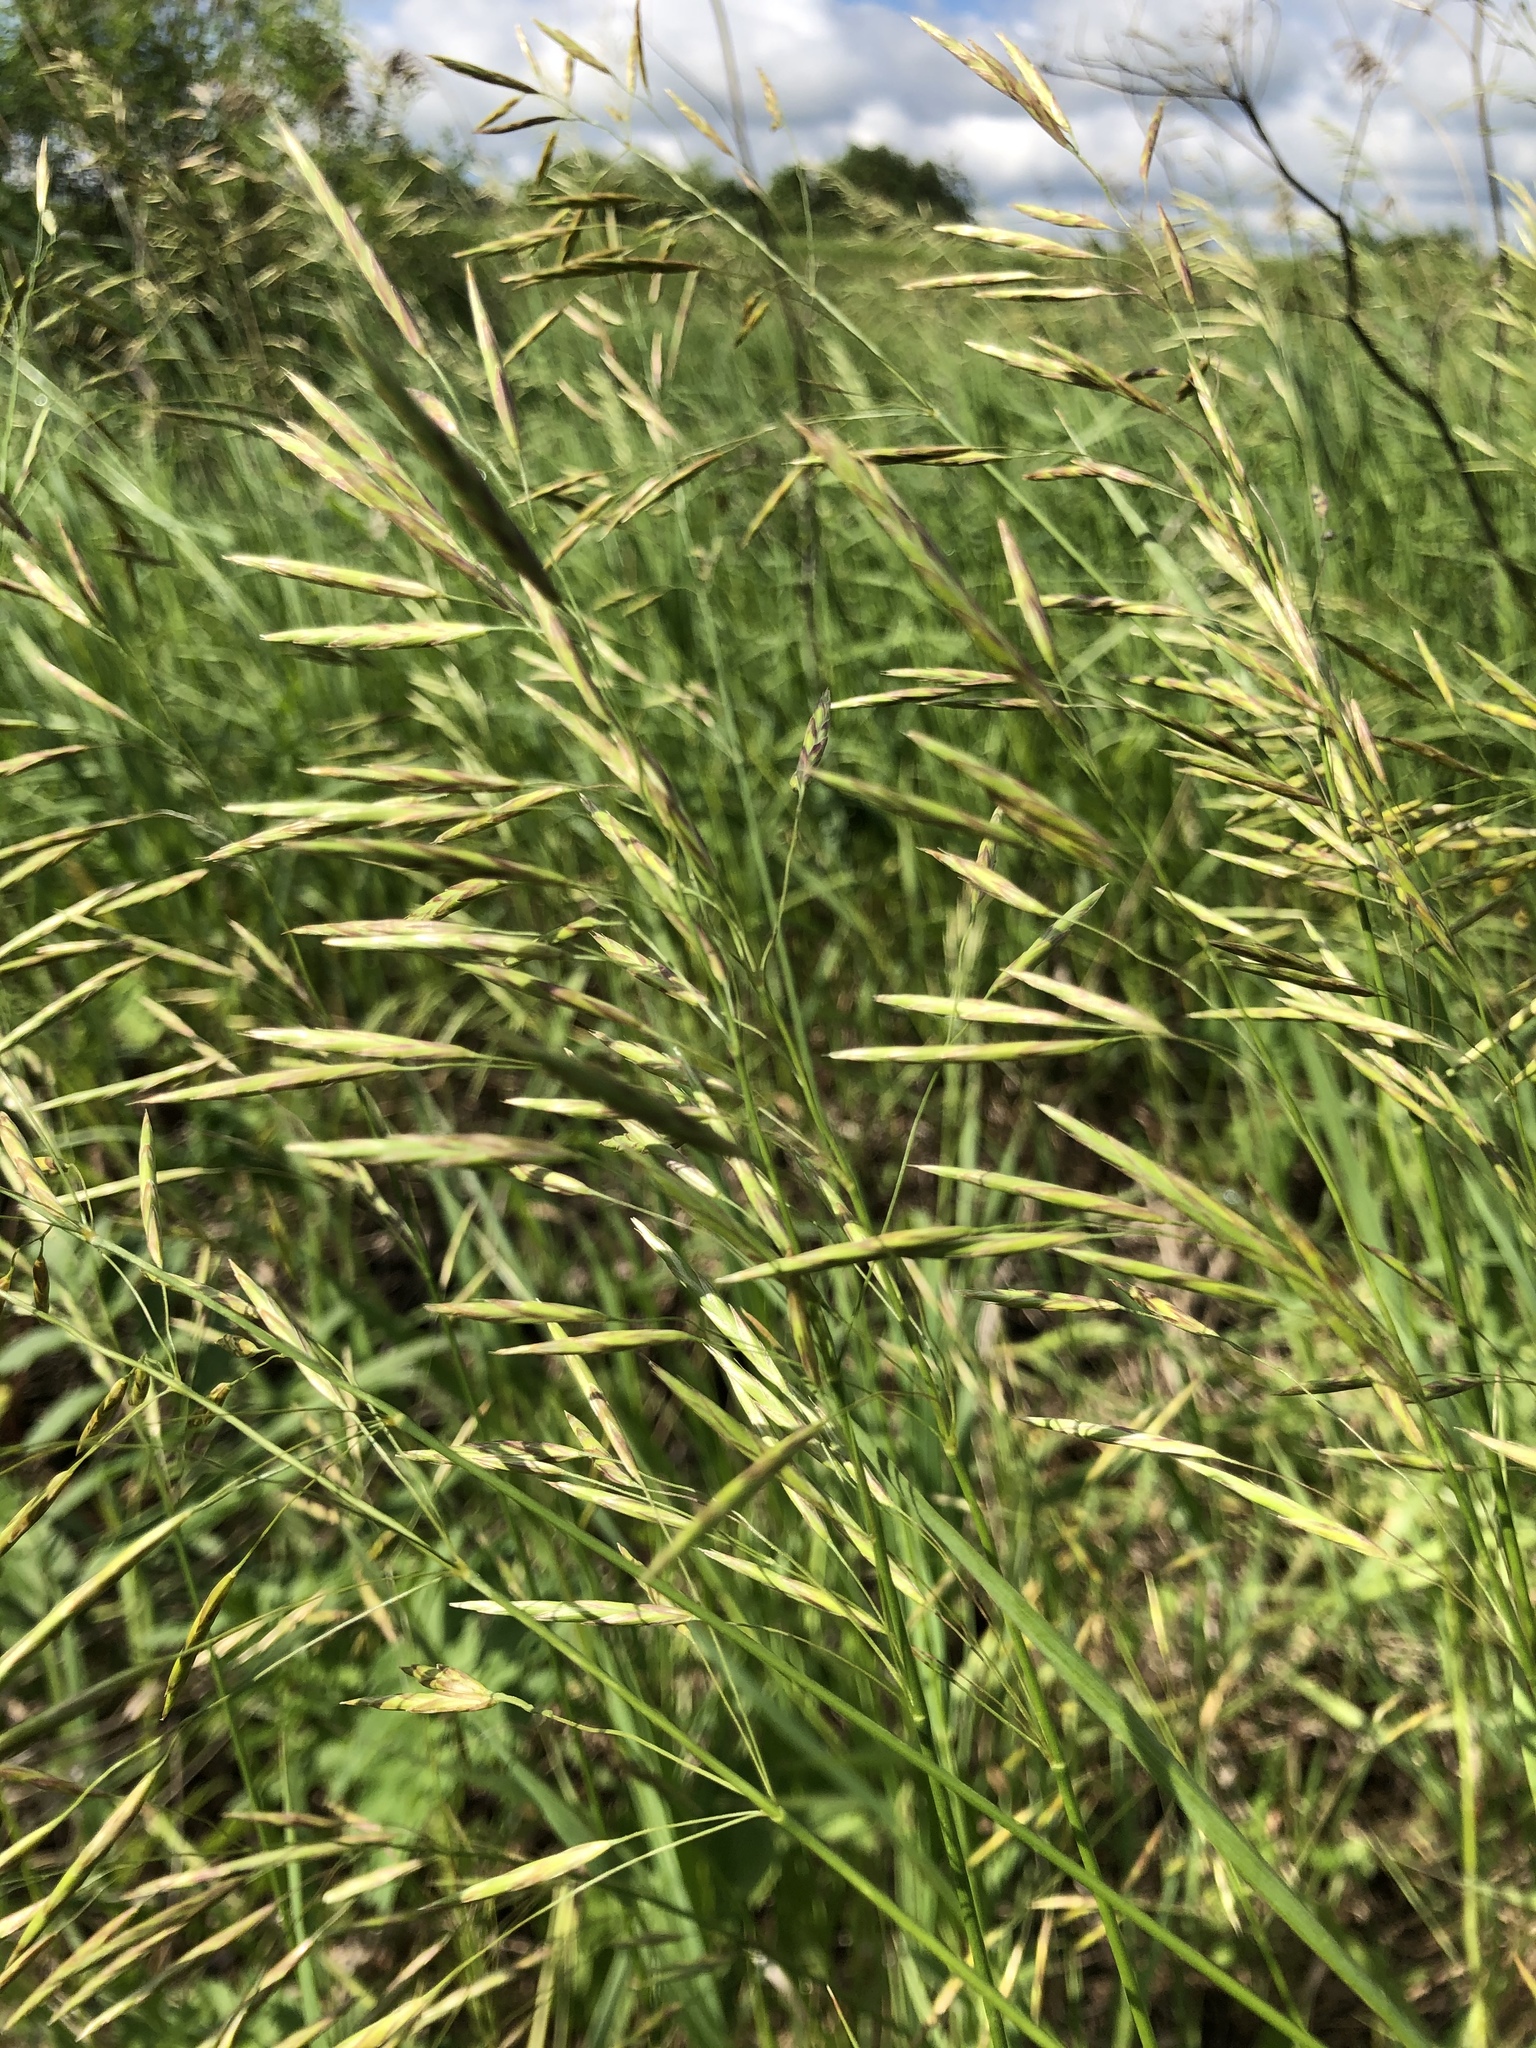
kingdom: Plantae
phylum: Tracheophyta
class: Liliopsida
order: Poales
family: Poaceae
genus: Bromus
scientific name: Bromus inermis
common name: Smooth brome
